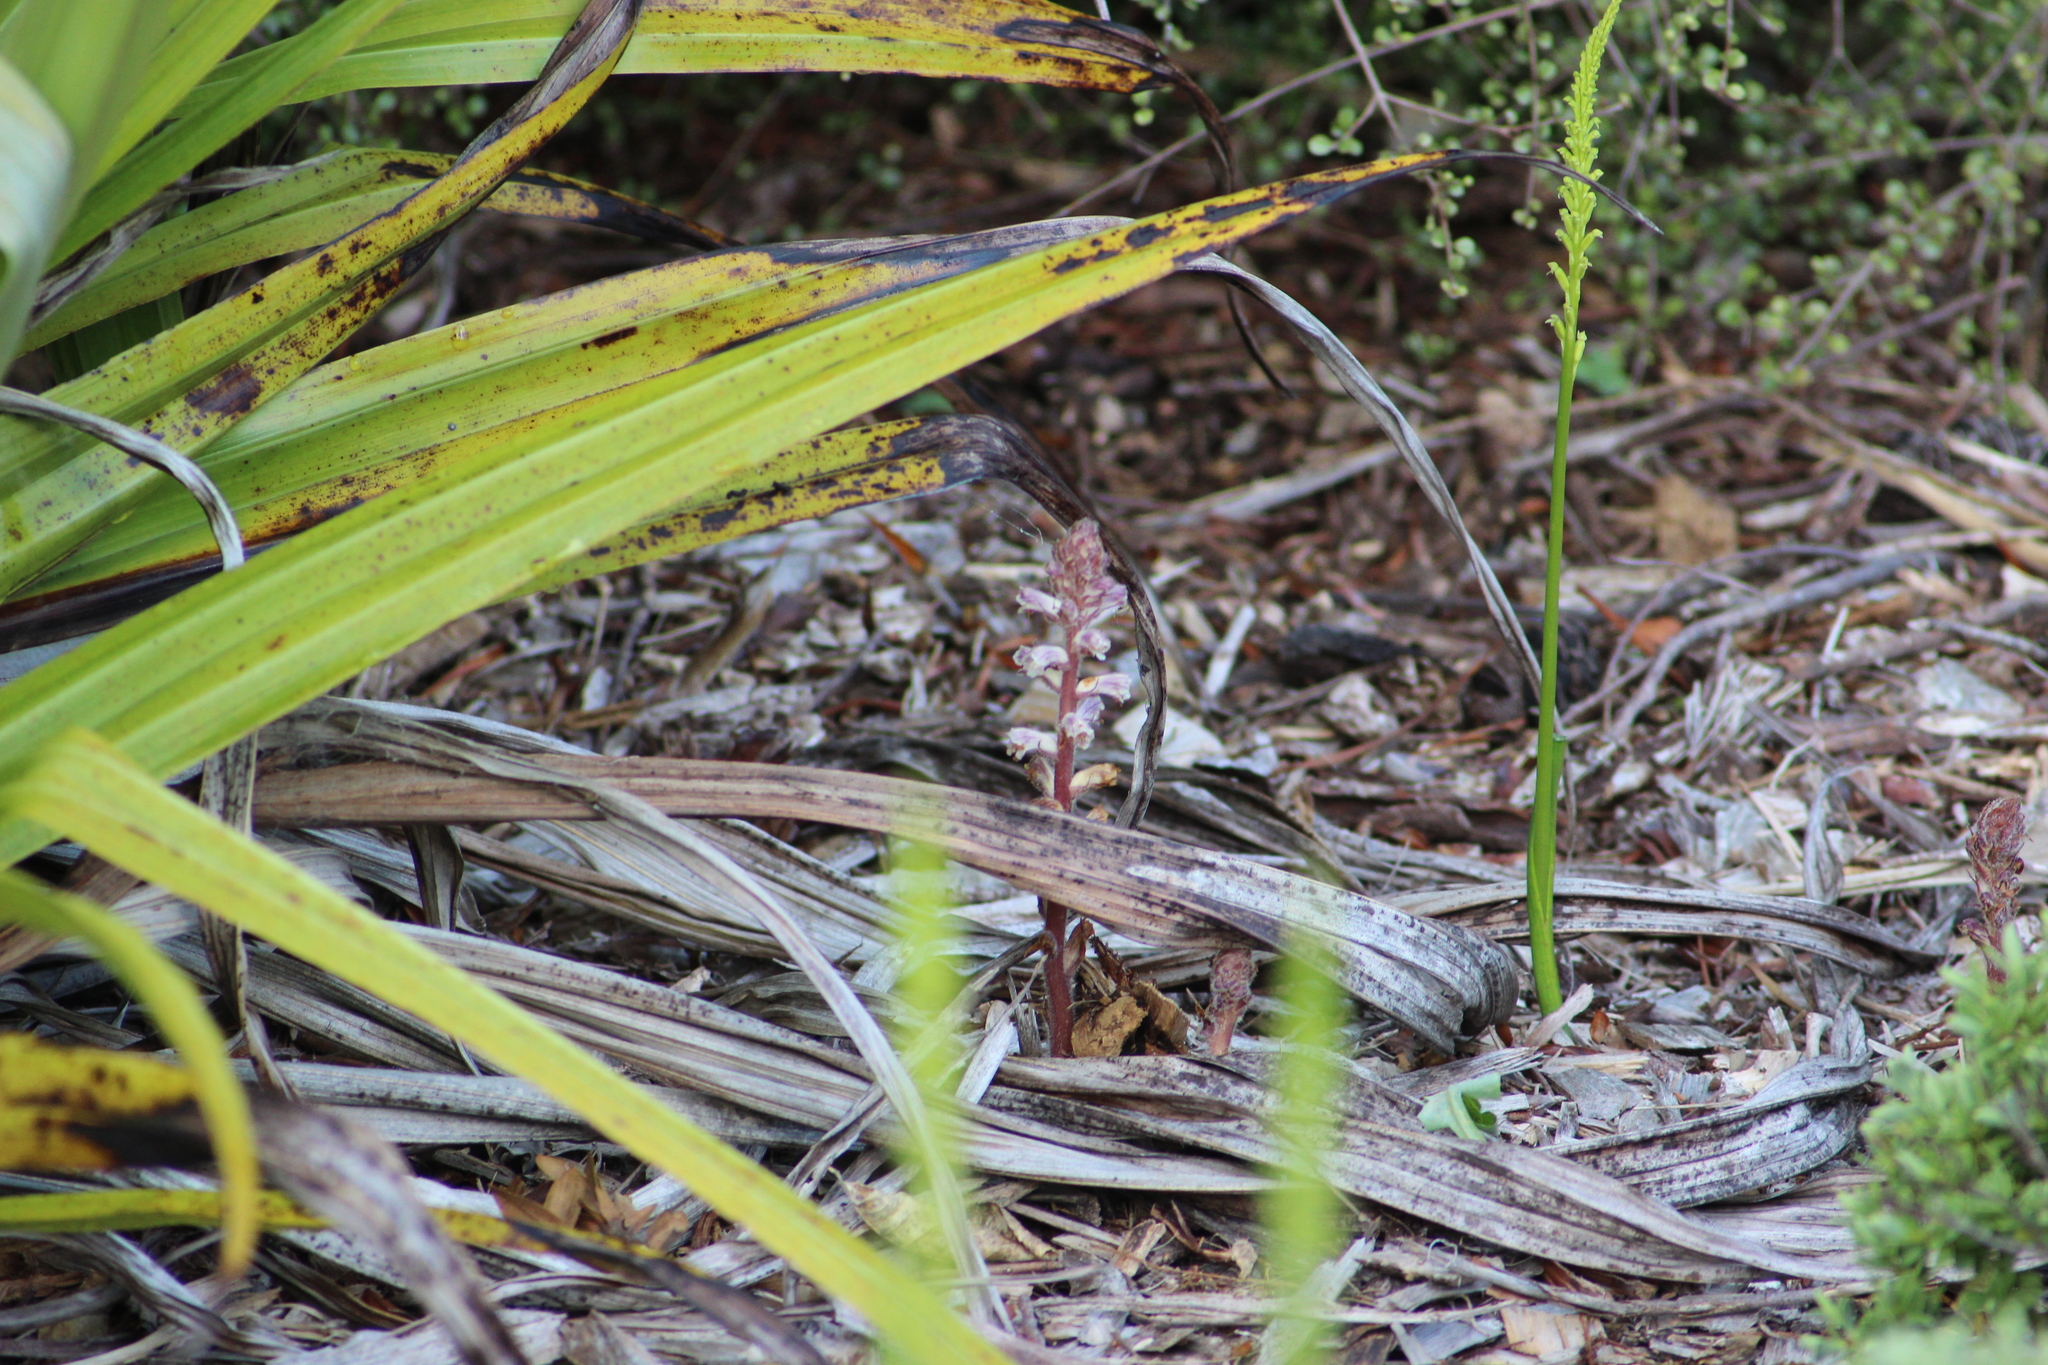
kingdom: Plantae
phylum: Tracheophyta
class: Magnoliopsida
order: Lamiales
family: Orobanchaceae
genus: Orobanche
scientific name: Orobanche minor
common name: Common broomrape
